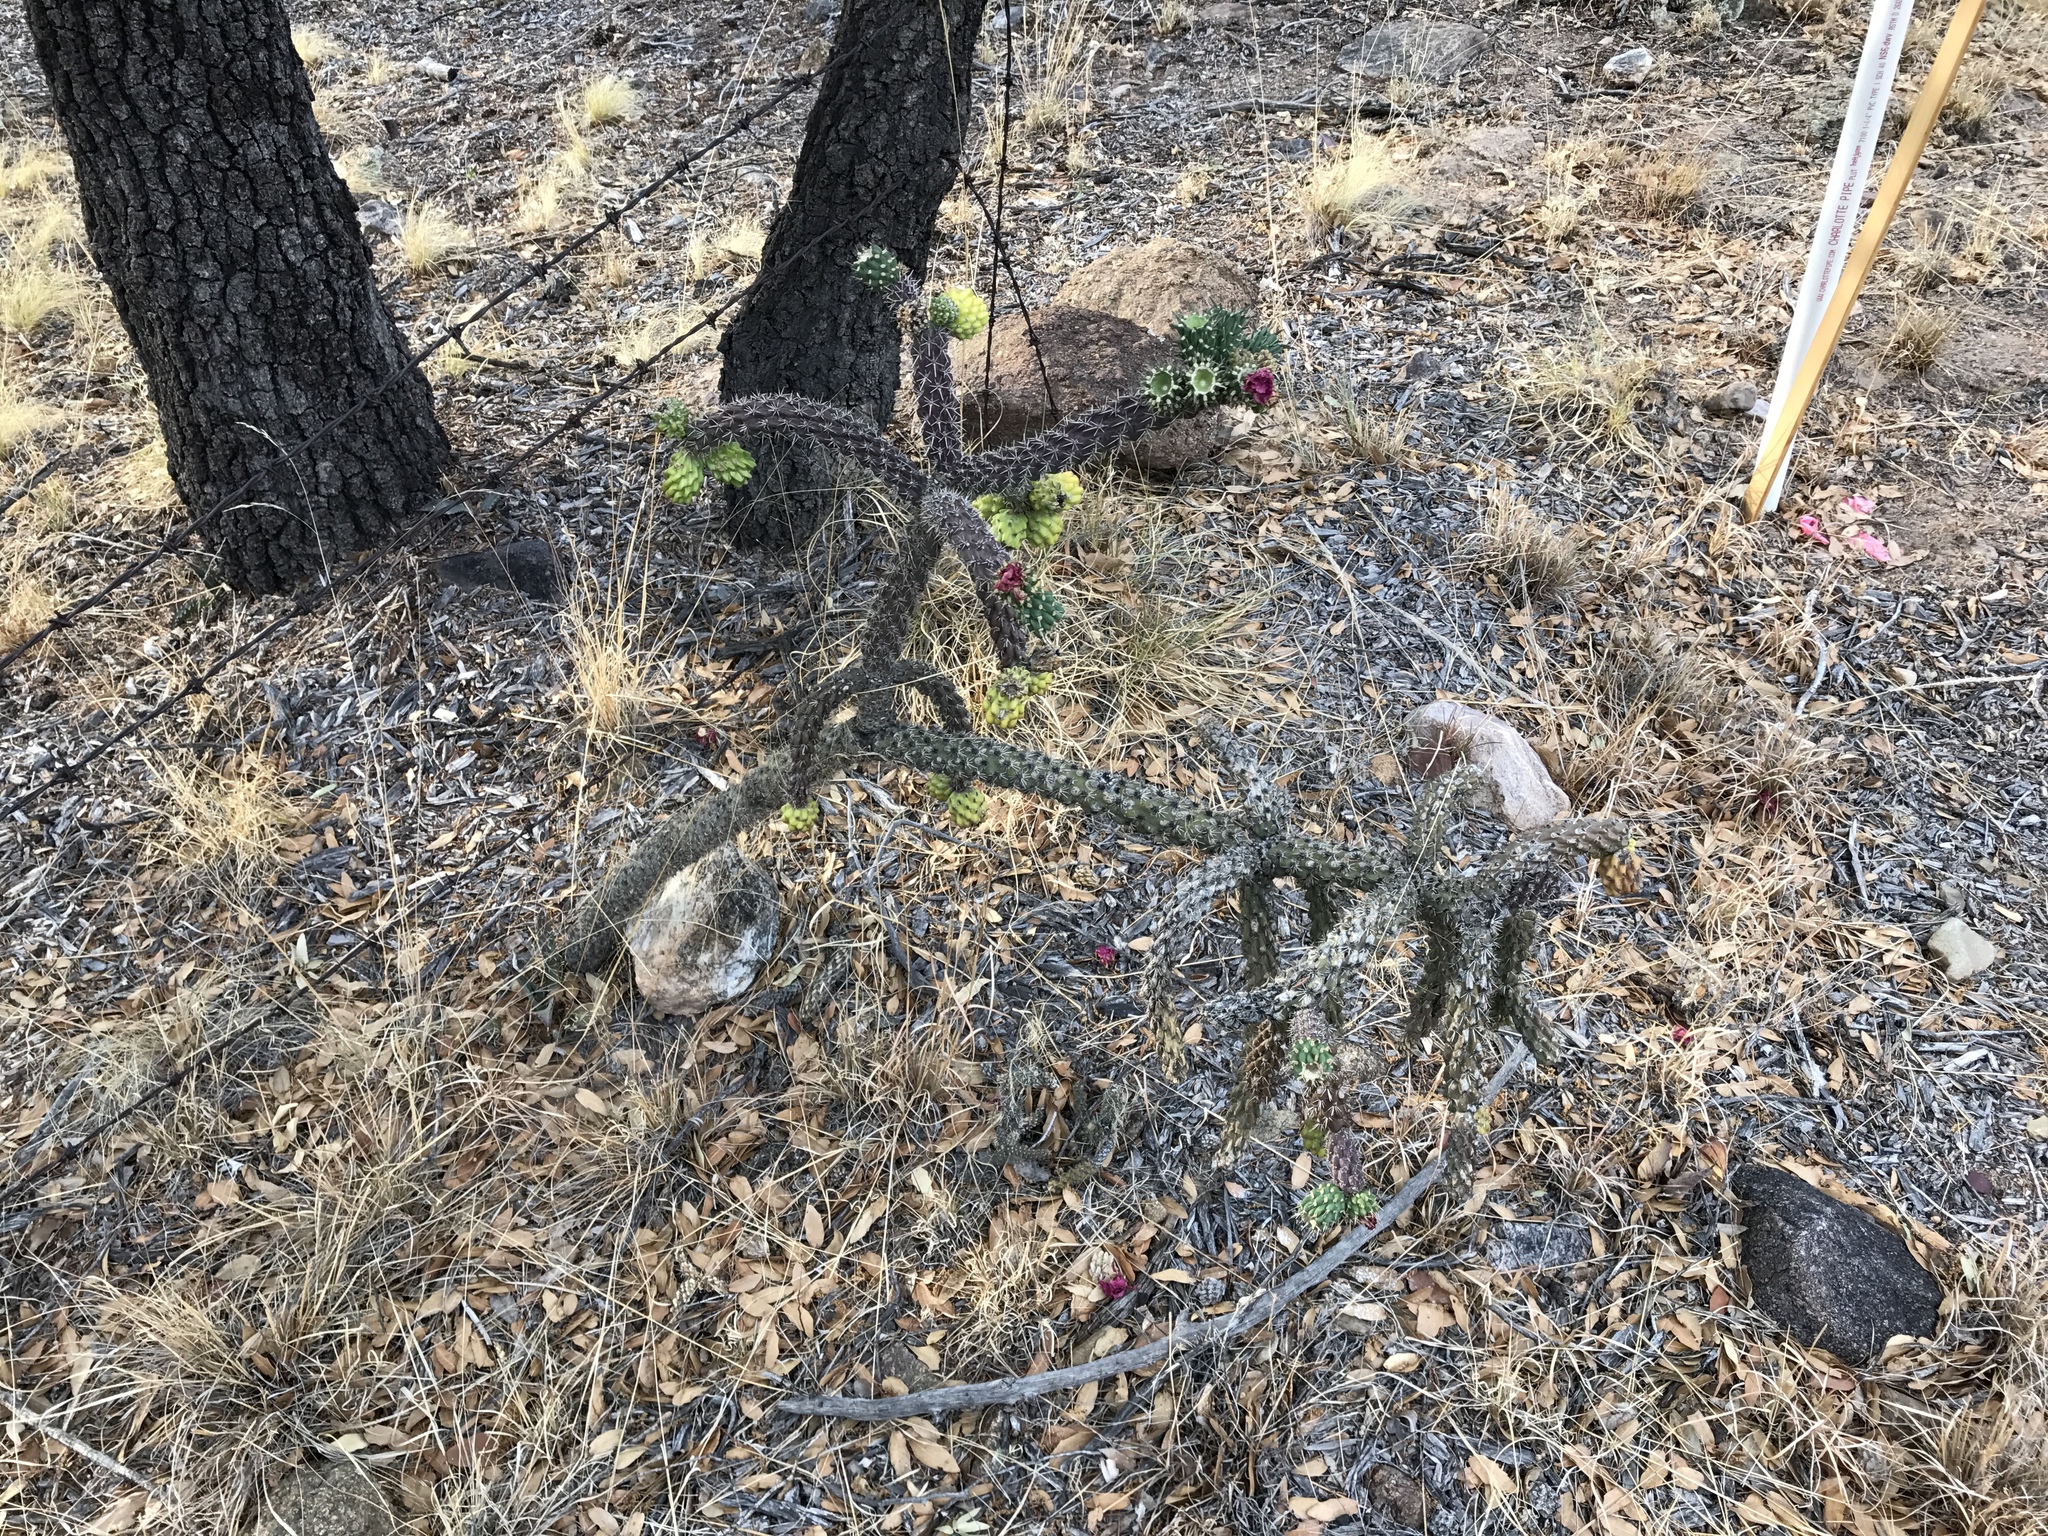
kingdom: Plantae
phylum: Tracheophyta
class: Magnoliopsida
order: Caryophyllales
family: Cactaceae
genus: Cylindropuntia
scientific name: Cylindropuntia imbricata
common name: Candelabrum cactus
